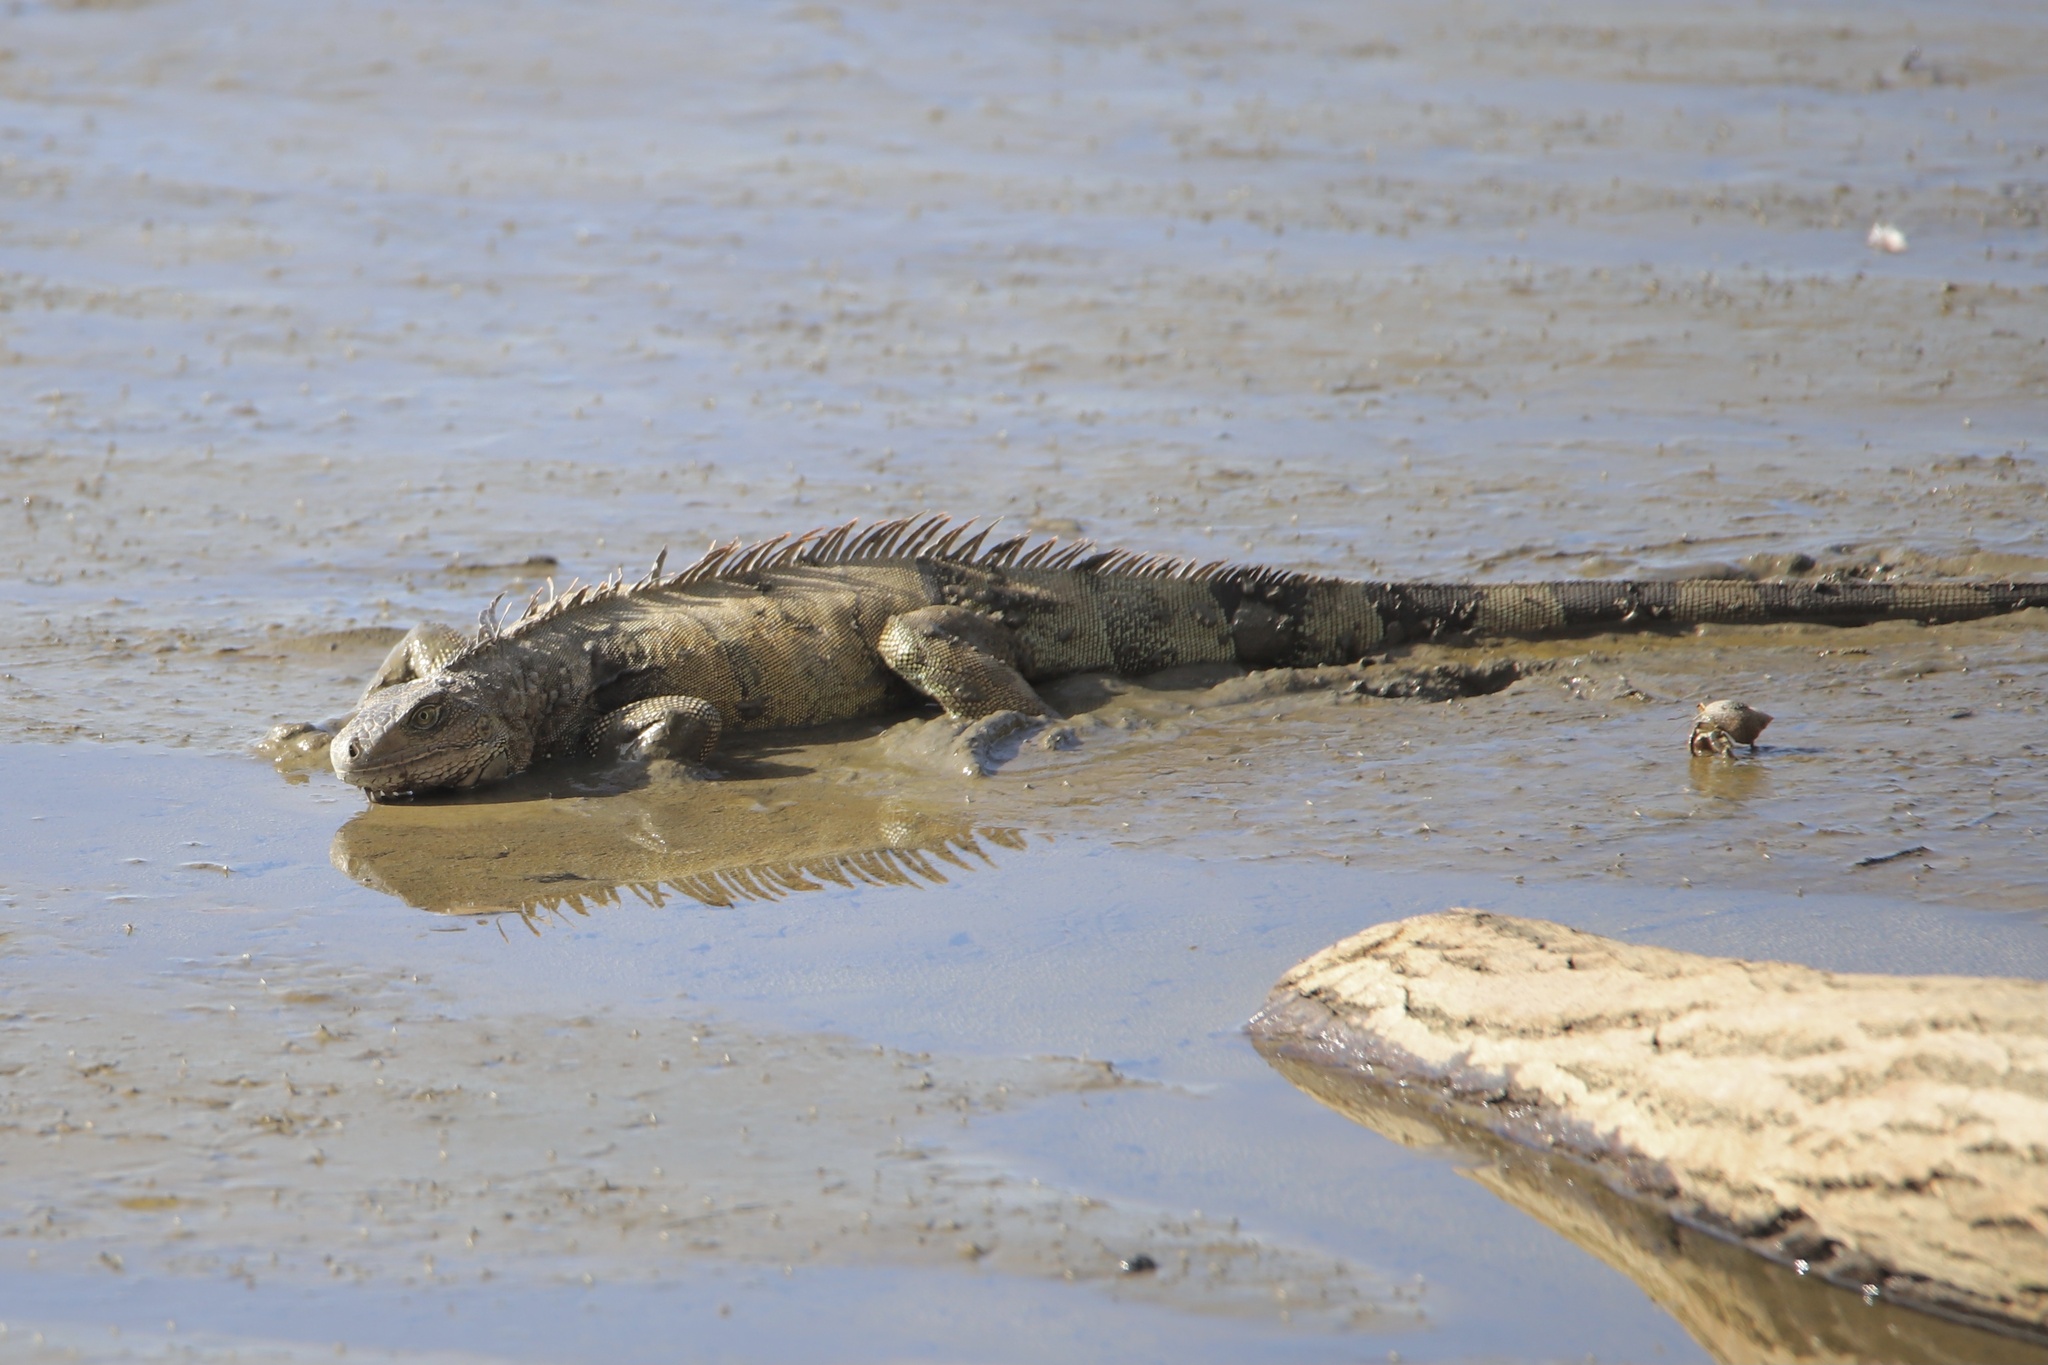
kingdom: Animalia
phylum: Chordata
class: Squamata
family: Iguanidae
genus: Iguana
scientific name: Iguana iguana
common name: Green iguana
